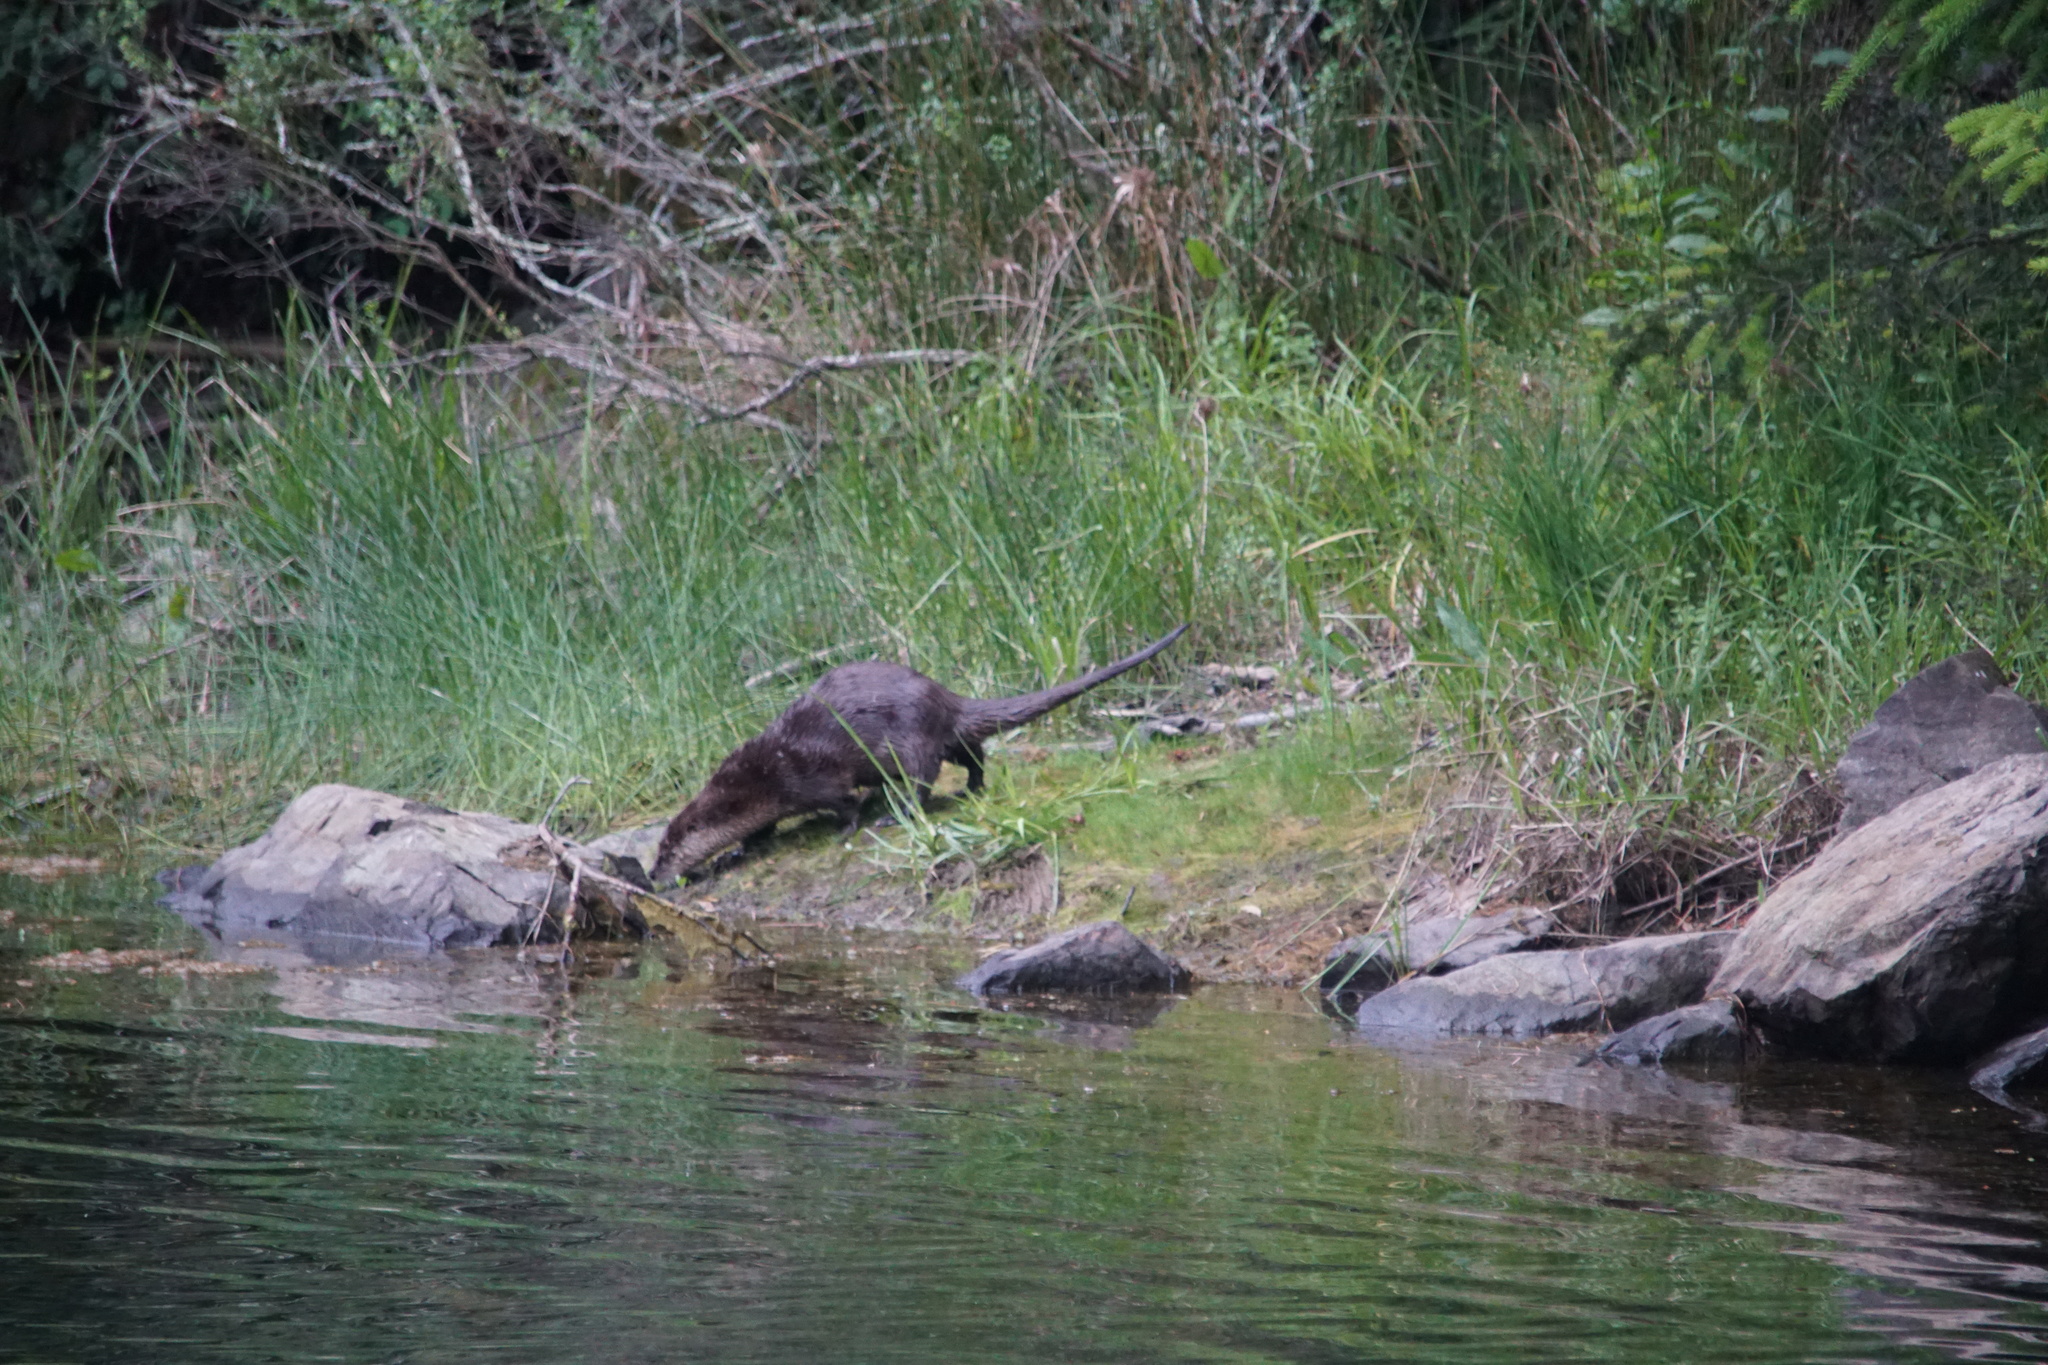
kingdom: Animalia
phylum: Chordata
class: Mammalia
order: Carnivora
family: Mustelidae
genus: Lontra
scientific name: Lontra canadensis
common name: North american river otter
